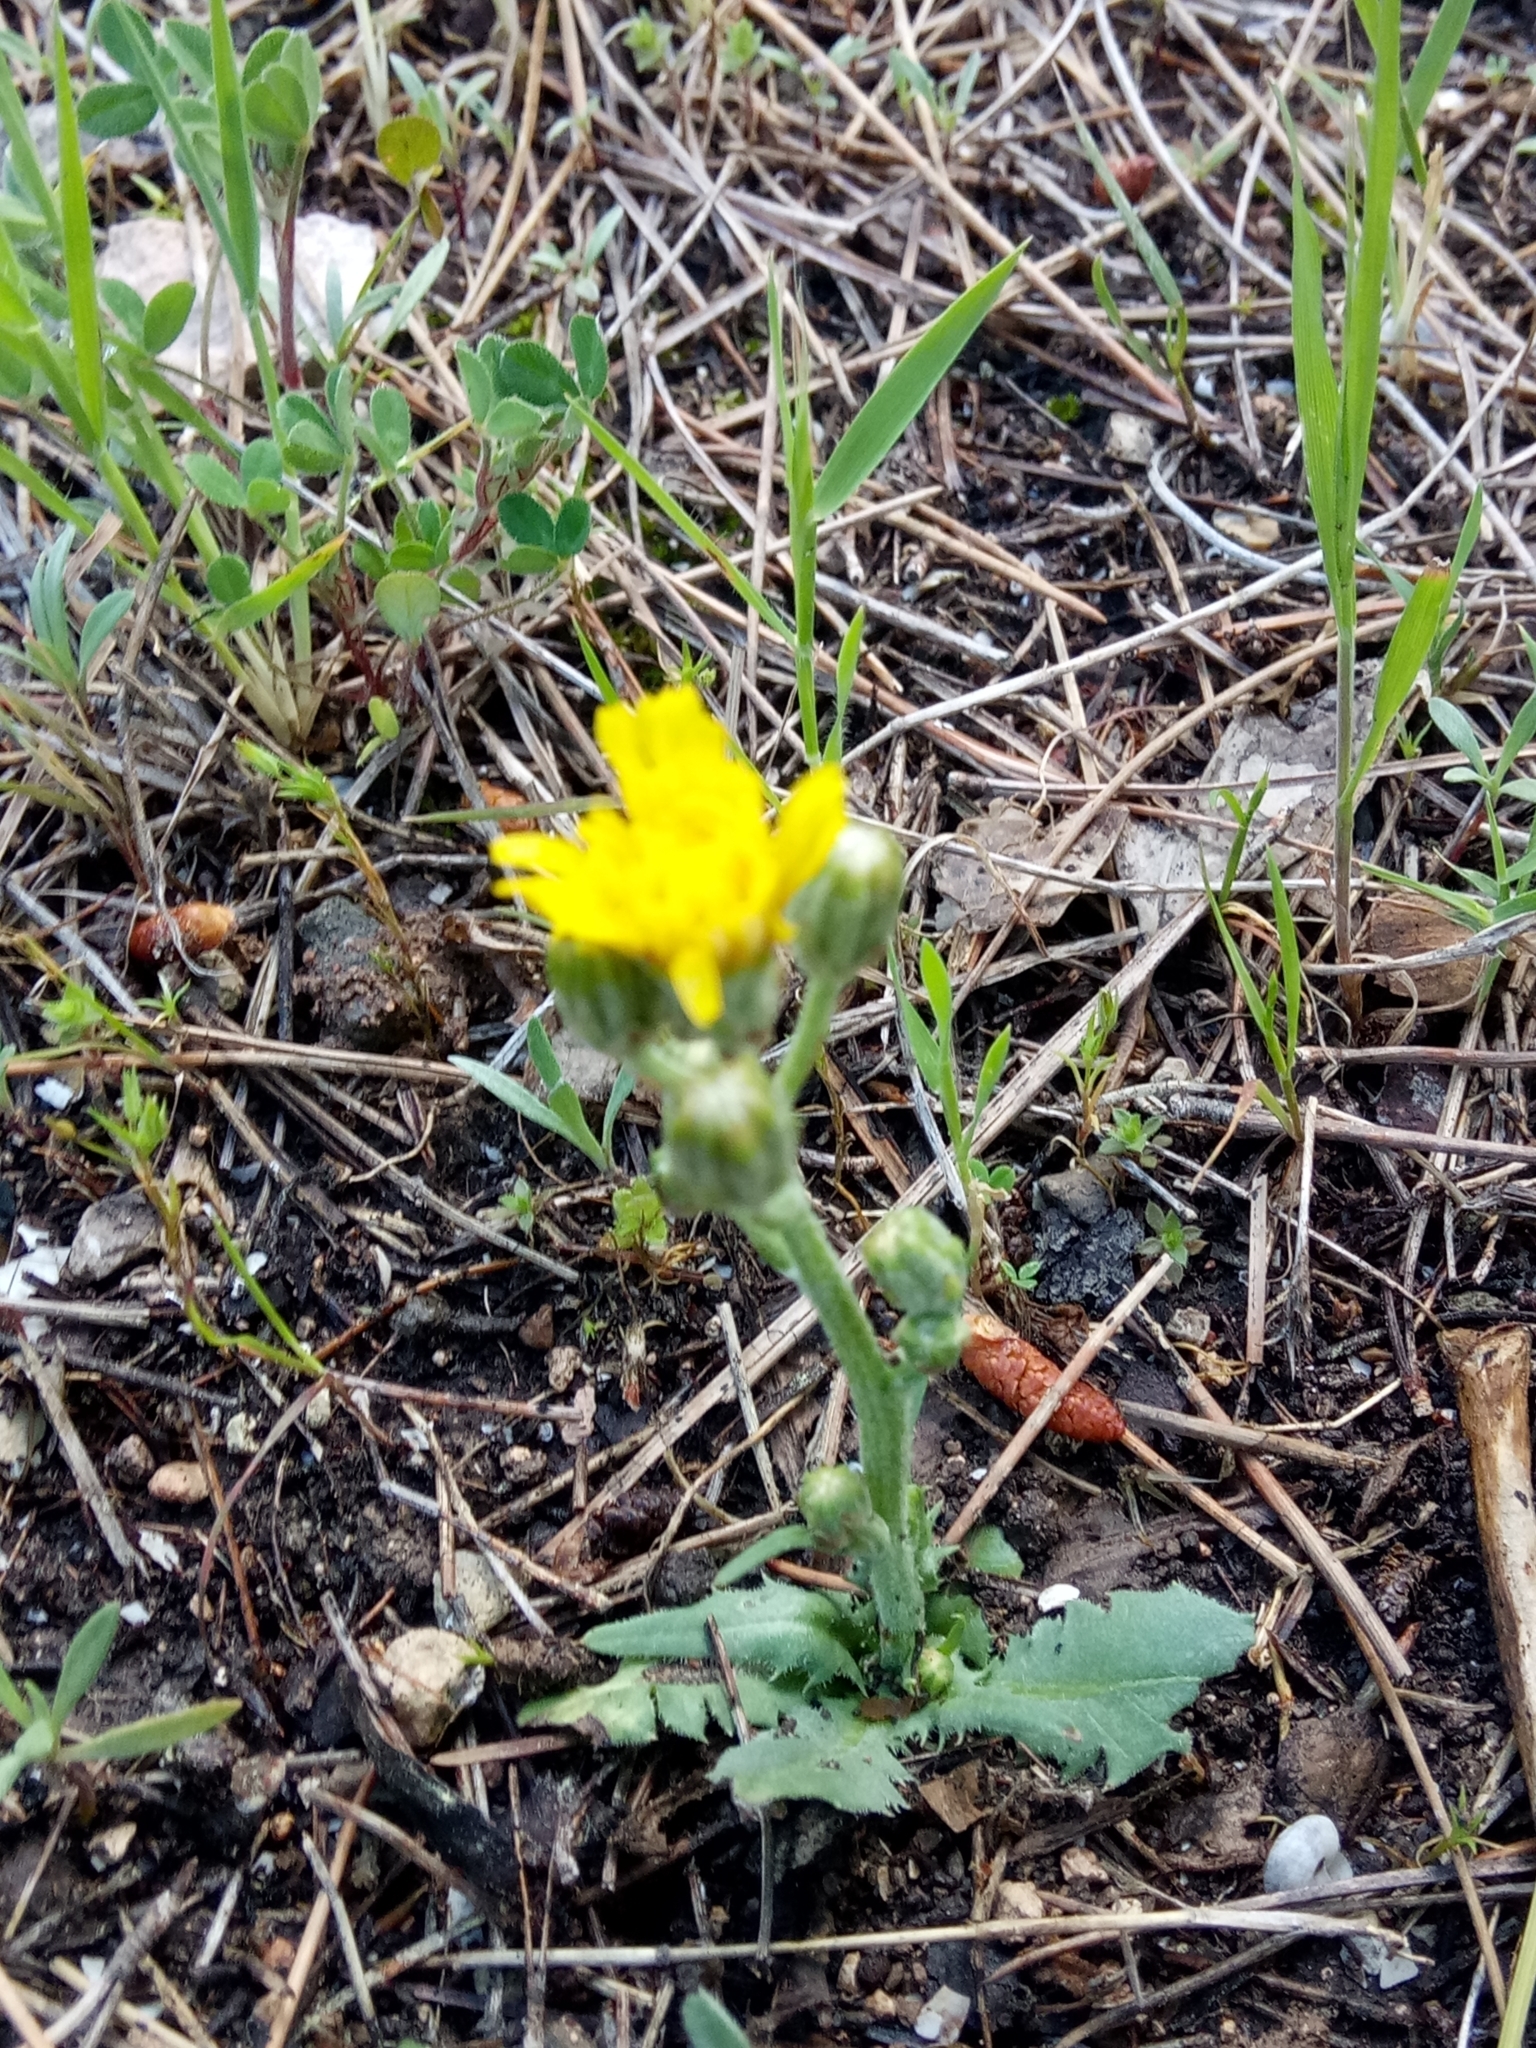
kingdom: Plantae
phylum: Tracheophyta
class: Magnoliopsida
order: Asterales
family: Asteraceae
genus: Crepis
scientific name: Crepis vesicaria
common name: Beaked hawksbeard
